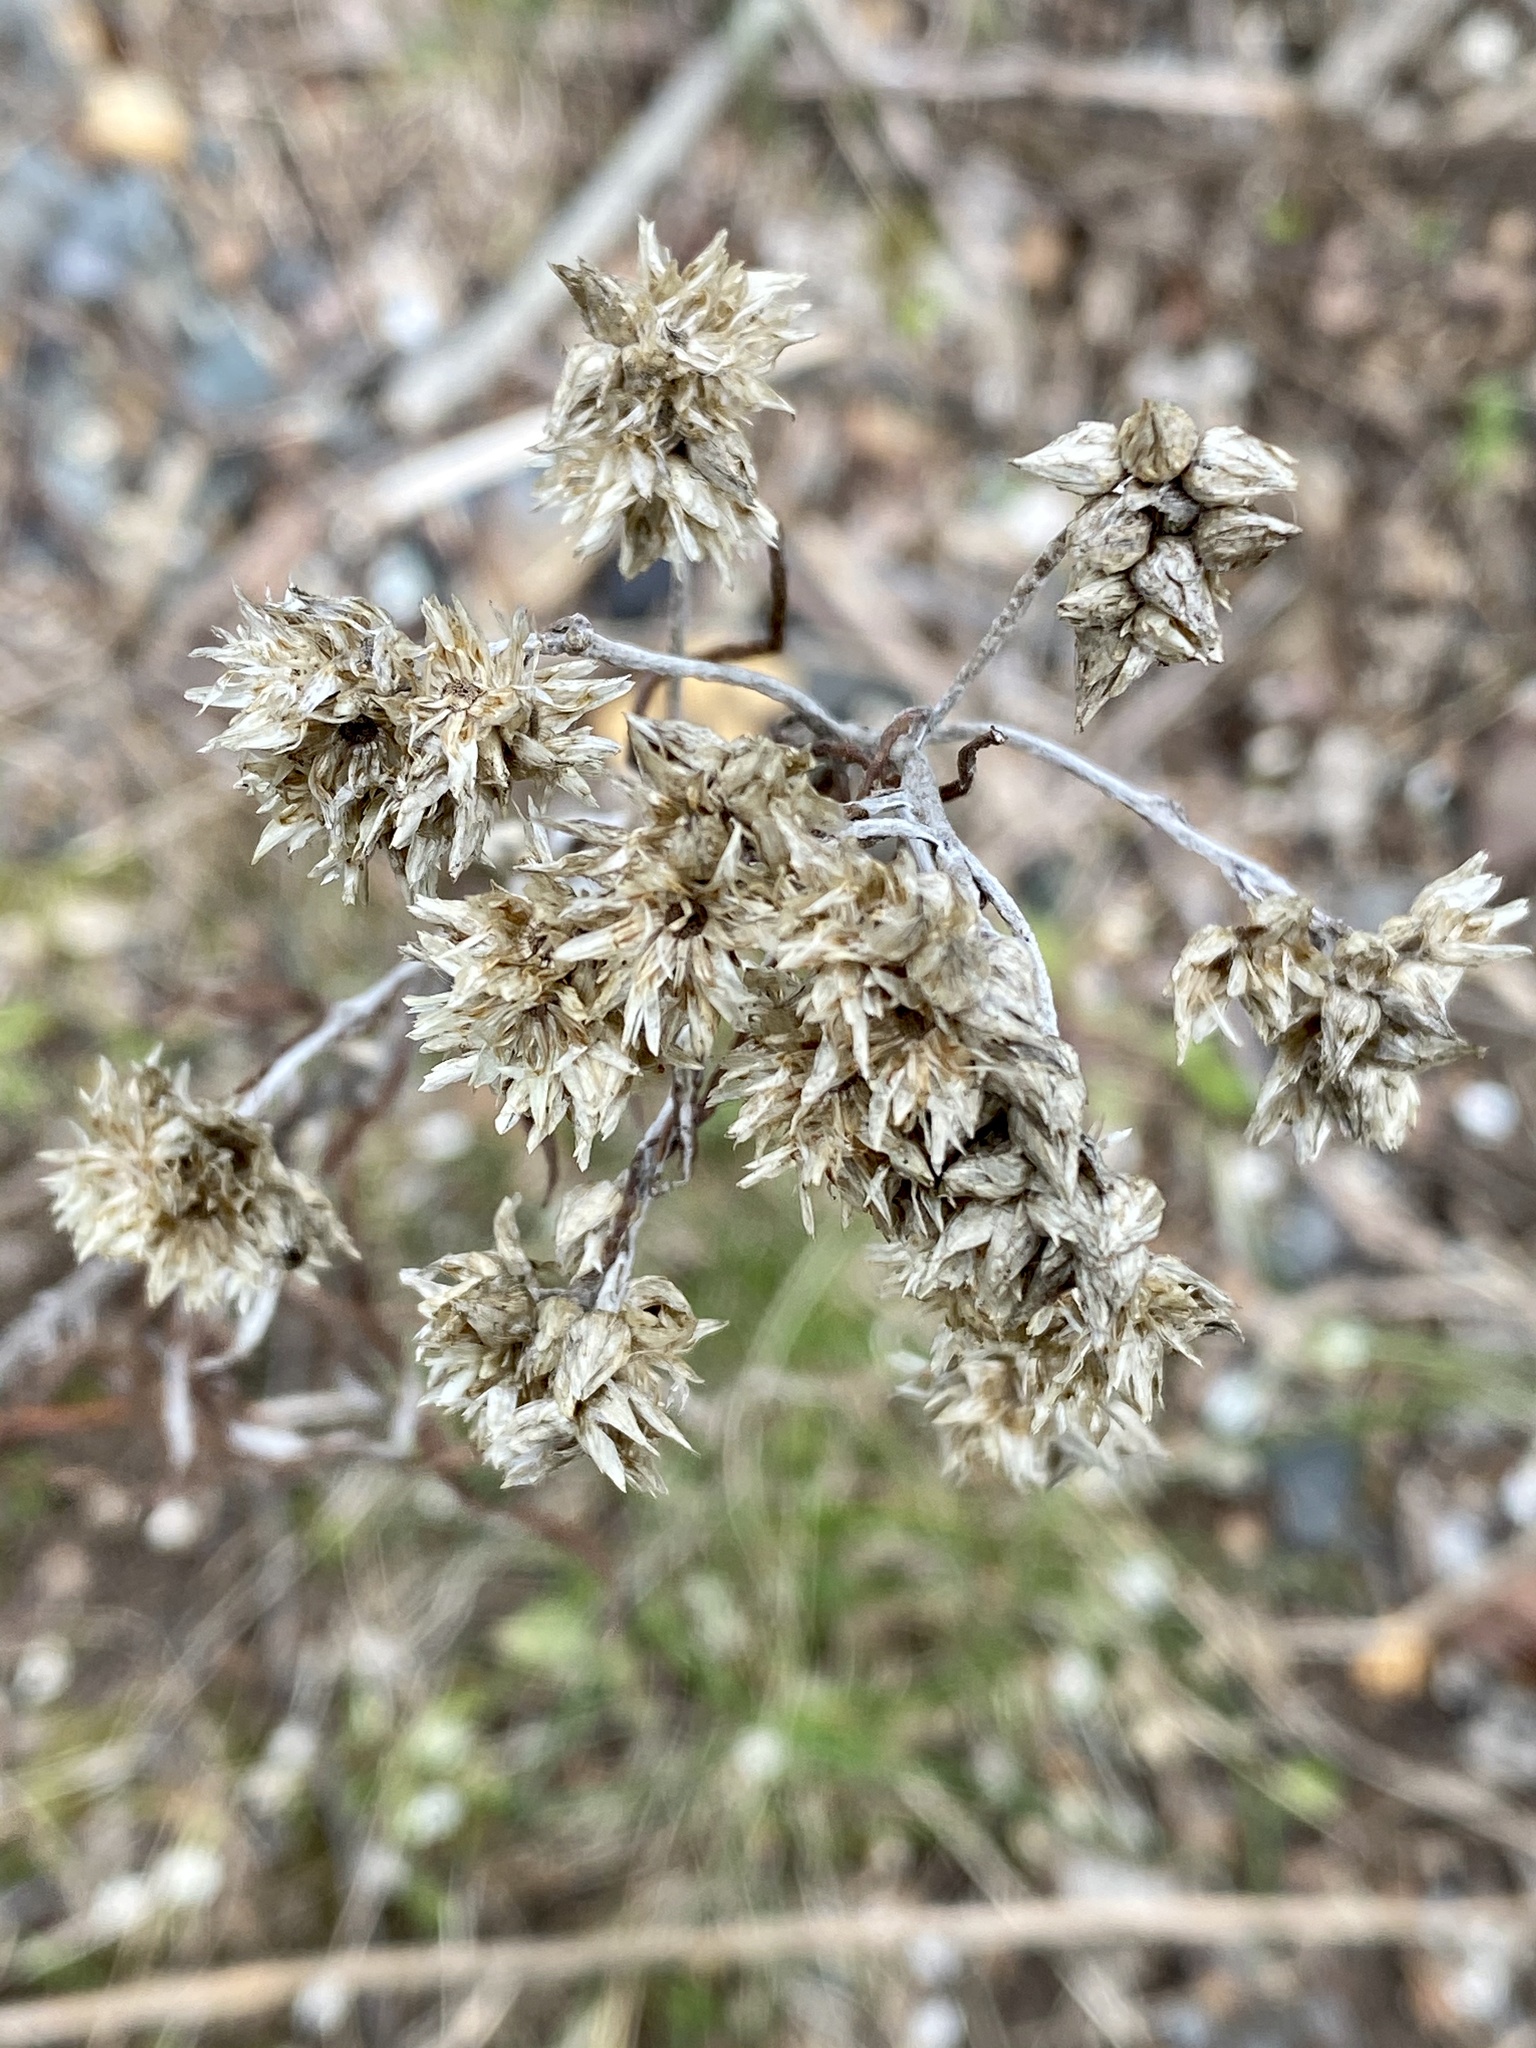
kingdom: Plantae
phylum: Tracheophyta
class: Magnoliopsida
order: Asterales
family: Asteraceae
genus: Pseudognaphalium
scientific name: Pseudognaphalium obtusifolium
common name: Eastern rabbit-tobacco
